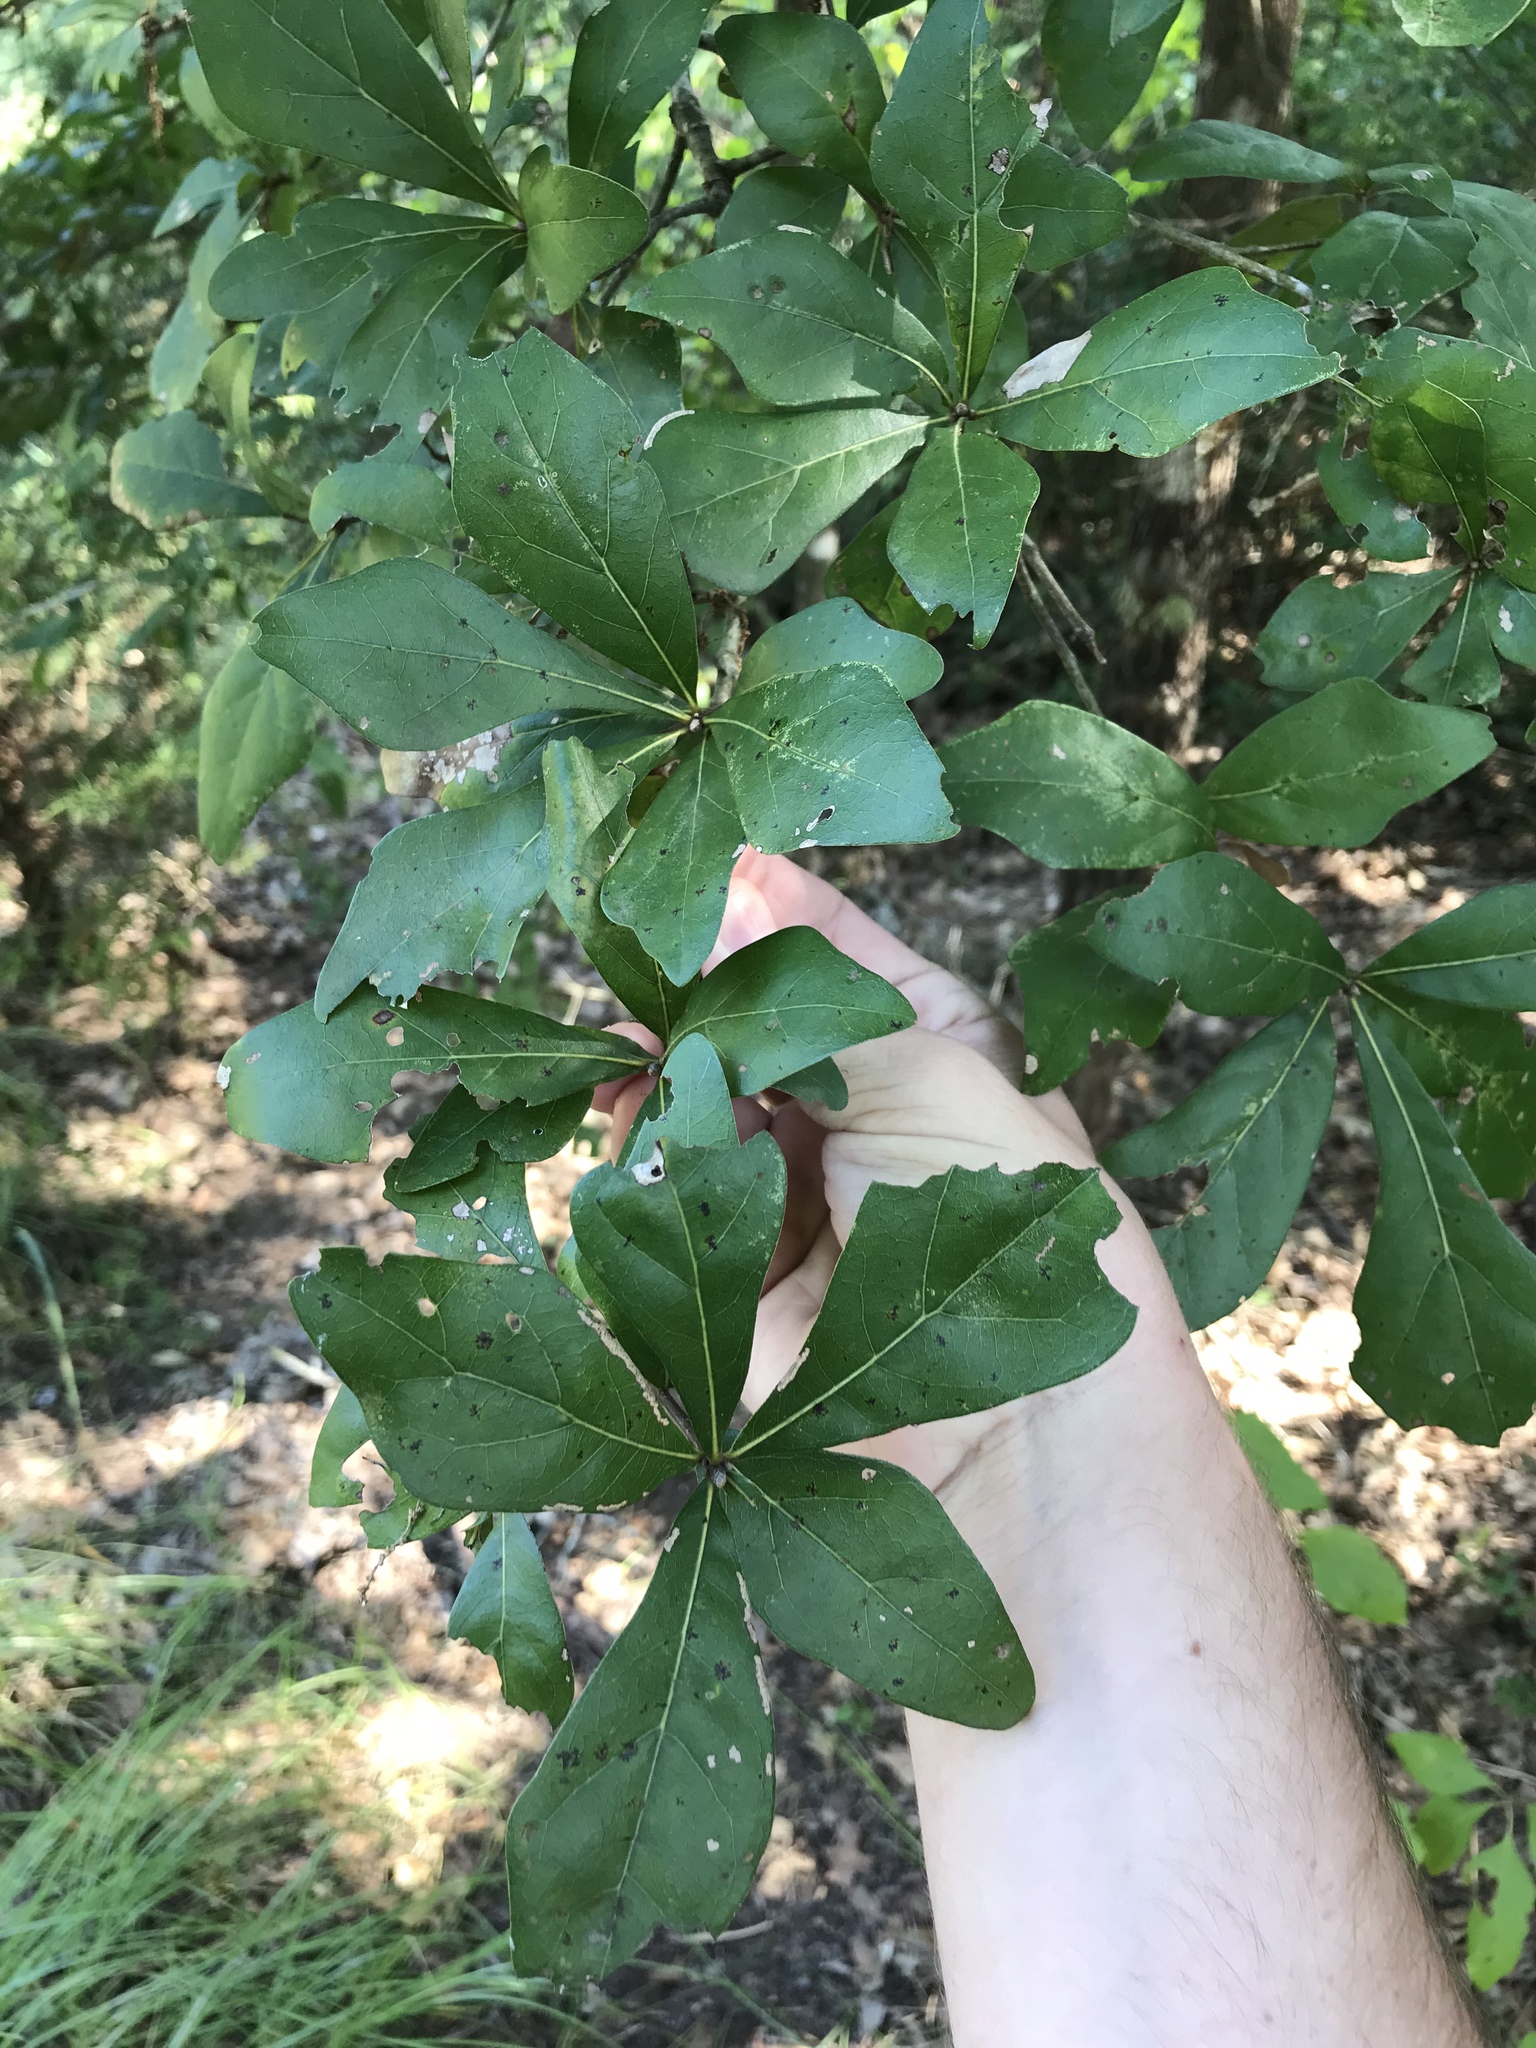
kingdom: Plantae
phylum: Tracheophyta
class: Magnoliopsida
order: Fagales
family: Fagaceae
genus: Quercus
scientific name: Quercus nigra
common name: Water oak
